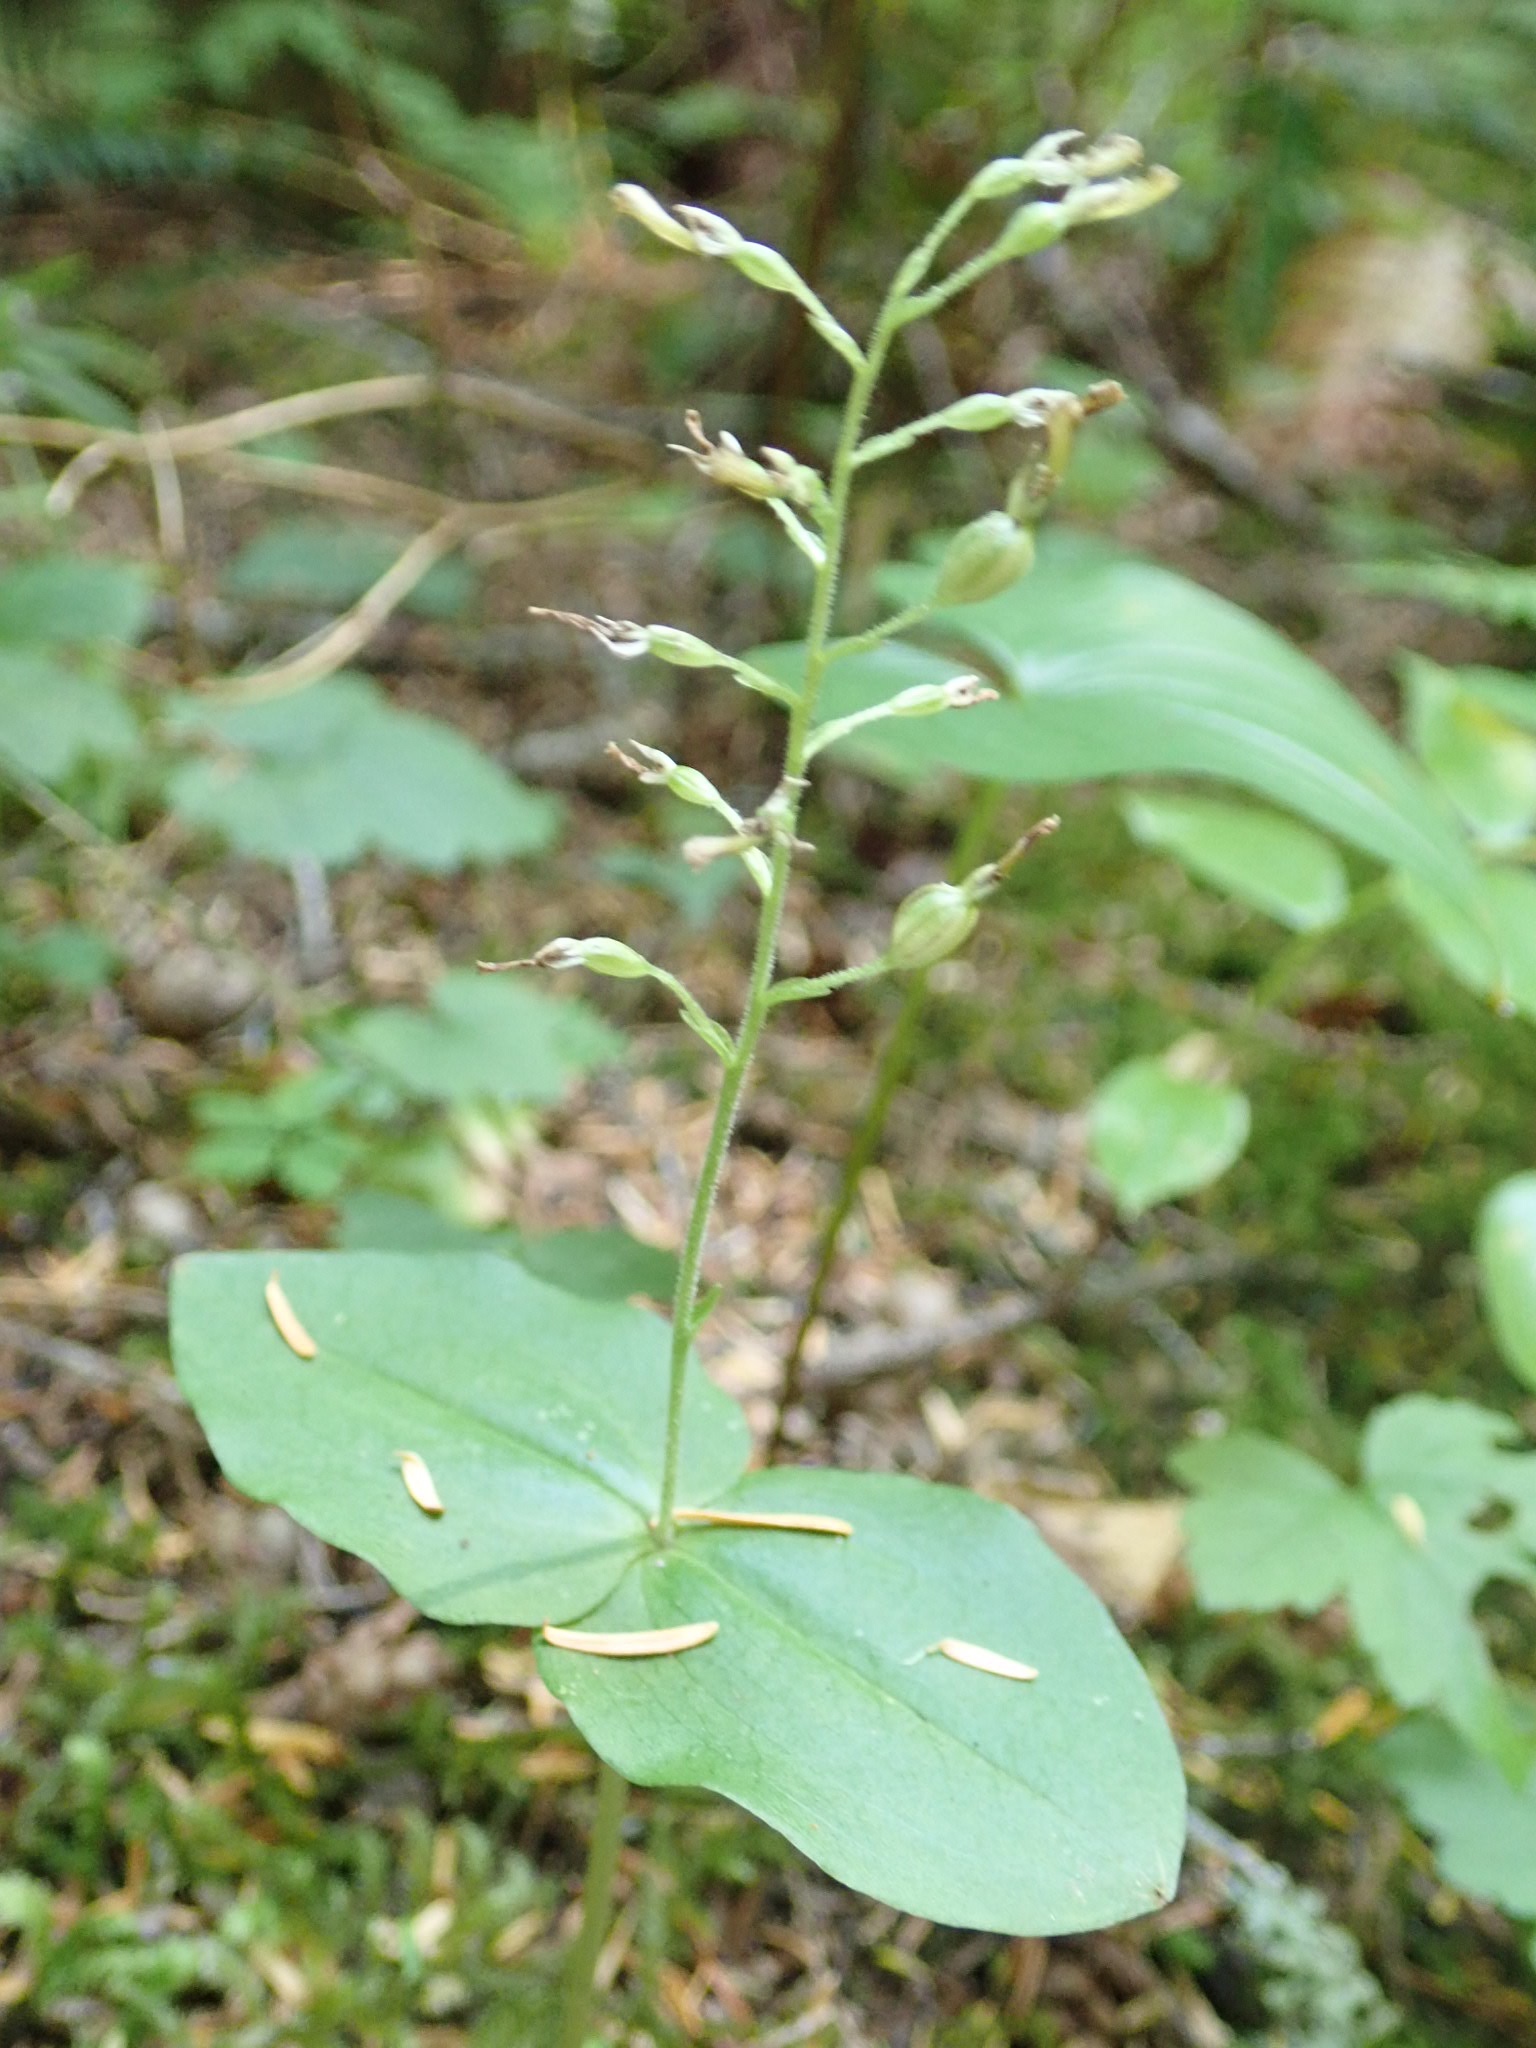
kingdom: Plantae
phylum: Tracheophyta
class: Liliopsida
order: Asparagales
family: Orchidaceae
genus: Neottia
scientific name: Neottia banksiana
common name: Northwestern twayblade
